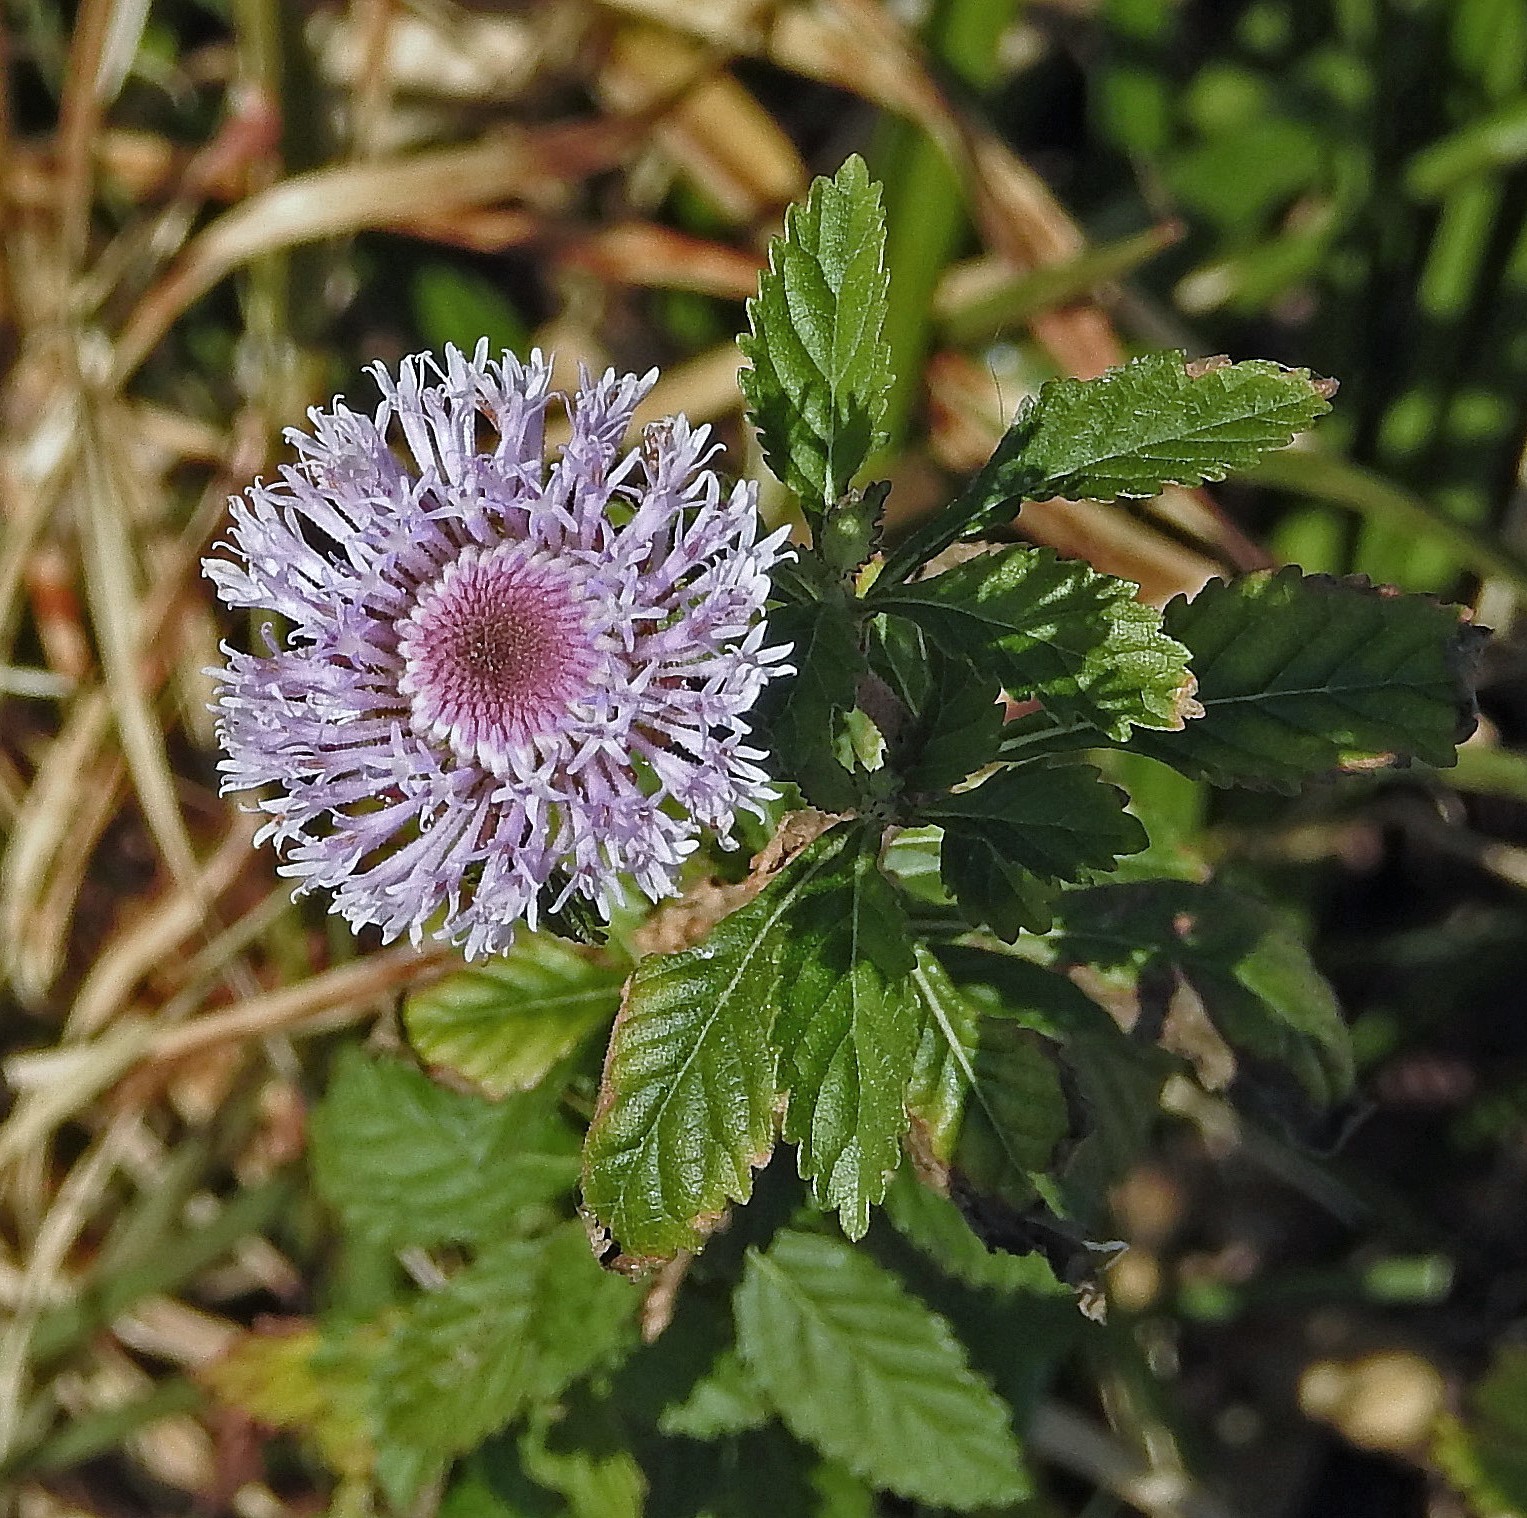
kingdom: Plantae
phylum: Tracheophyta
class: Magnoliopsida
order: Asterales
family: Asteraceae
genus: Centratherum
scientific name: Centratherum punctatum
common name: Larkdaisy
